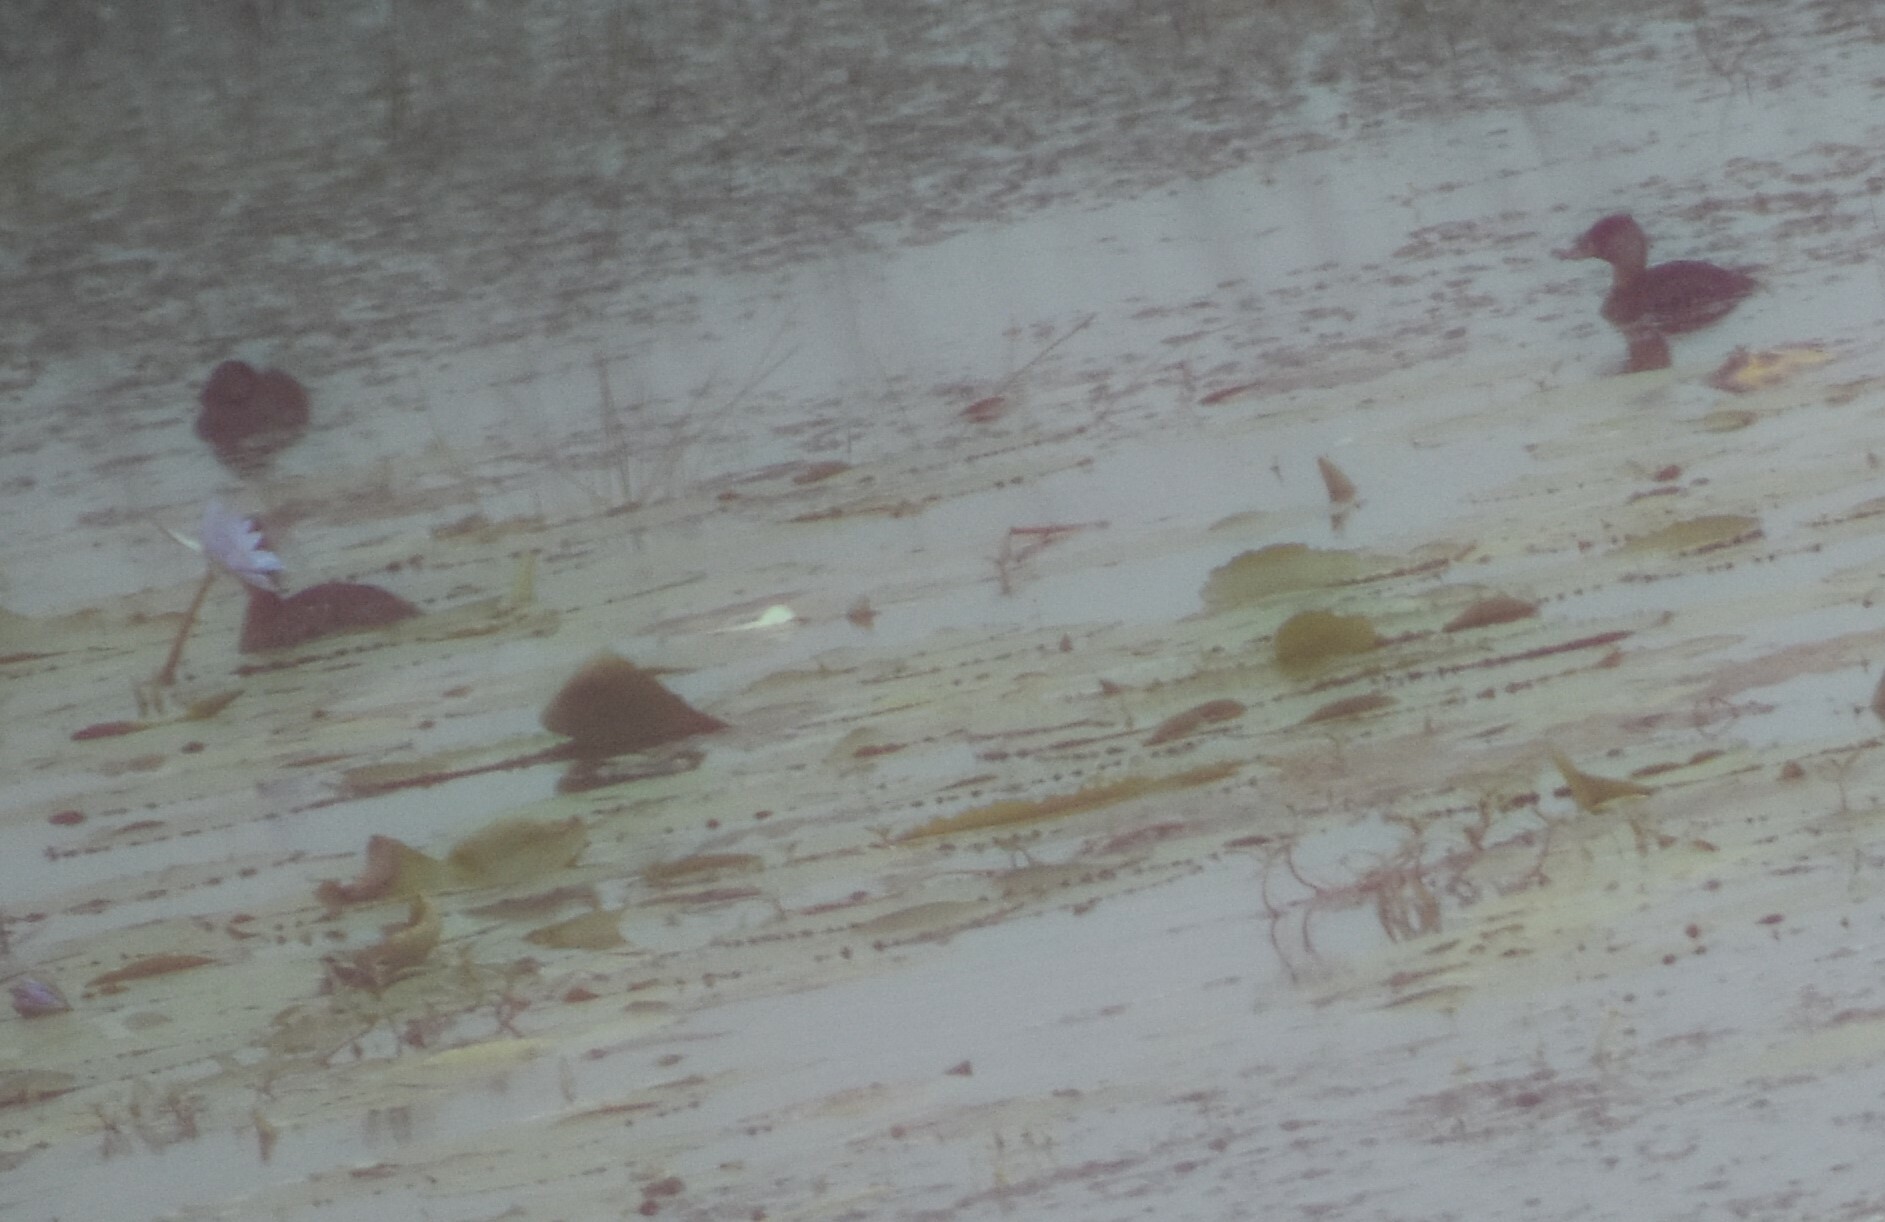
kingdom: Animalia
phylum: Chordata
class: Aves
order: Anseriformes
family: Anatidae
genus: Thalassornis
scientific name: Thalassornis leuconotus
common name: White-backed duck
